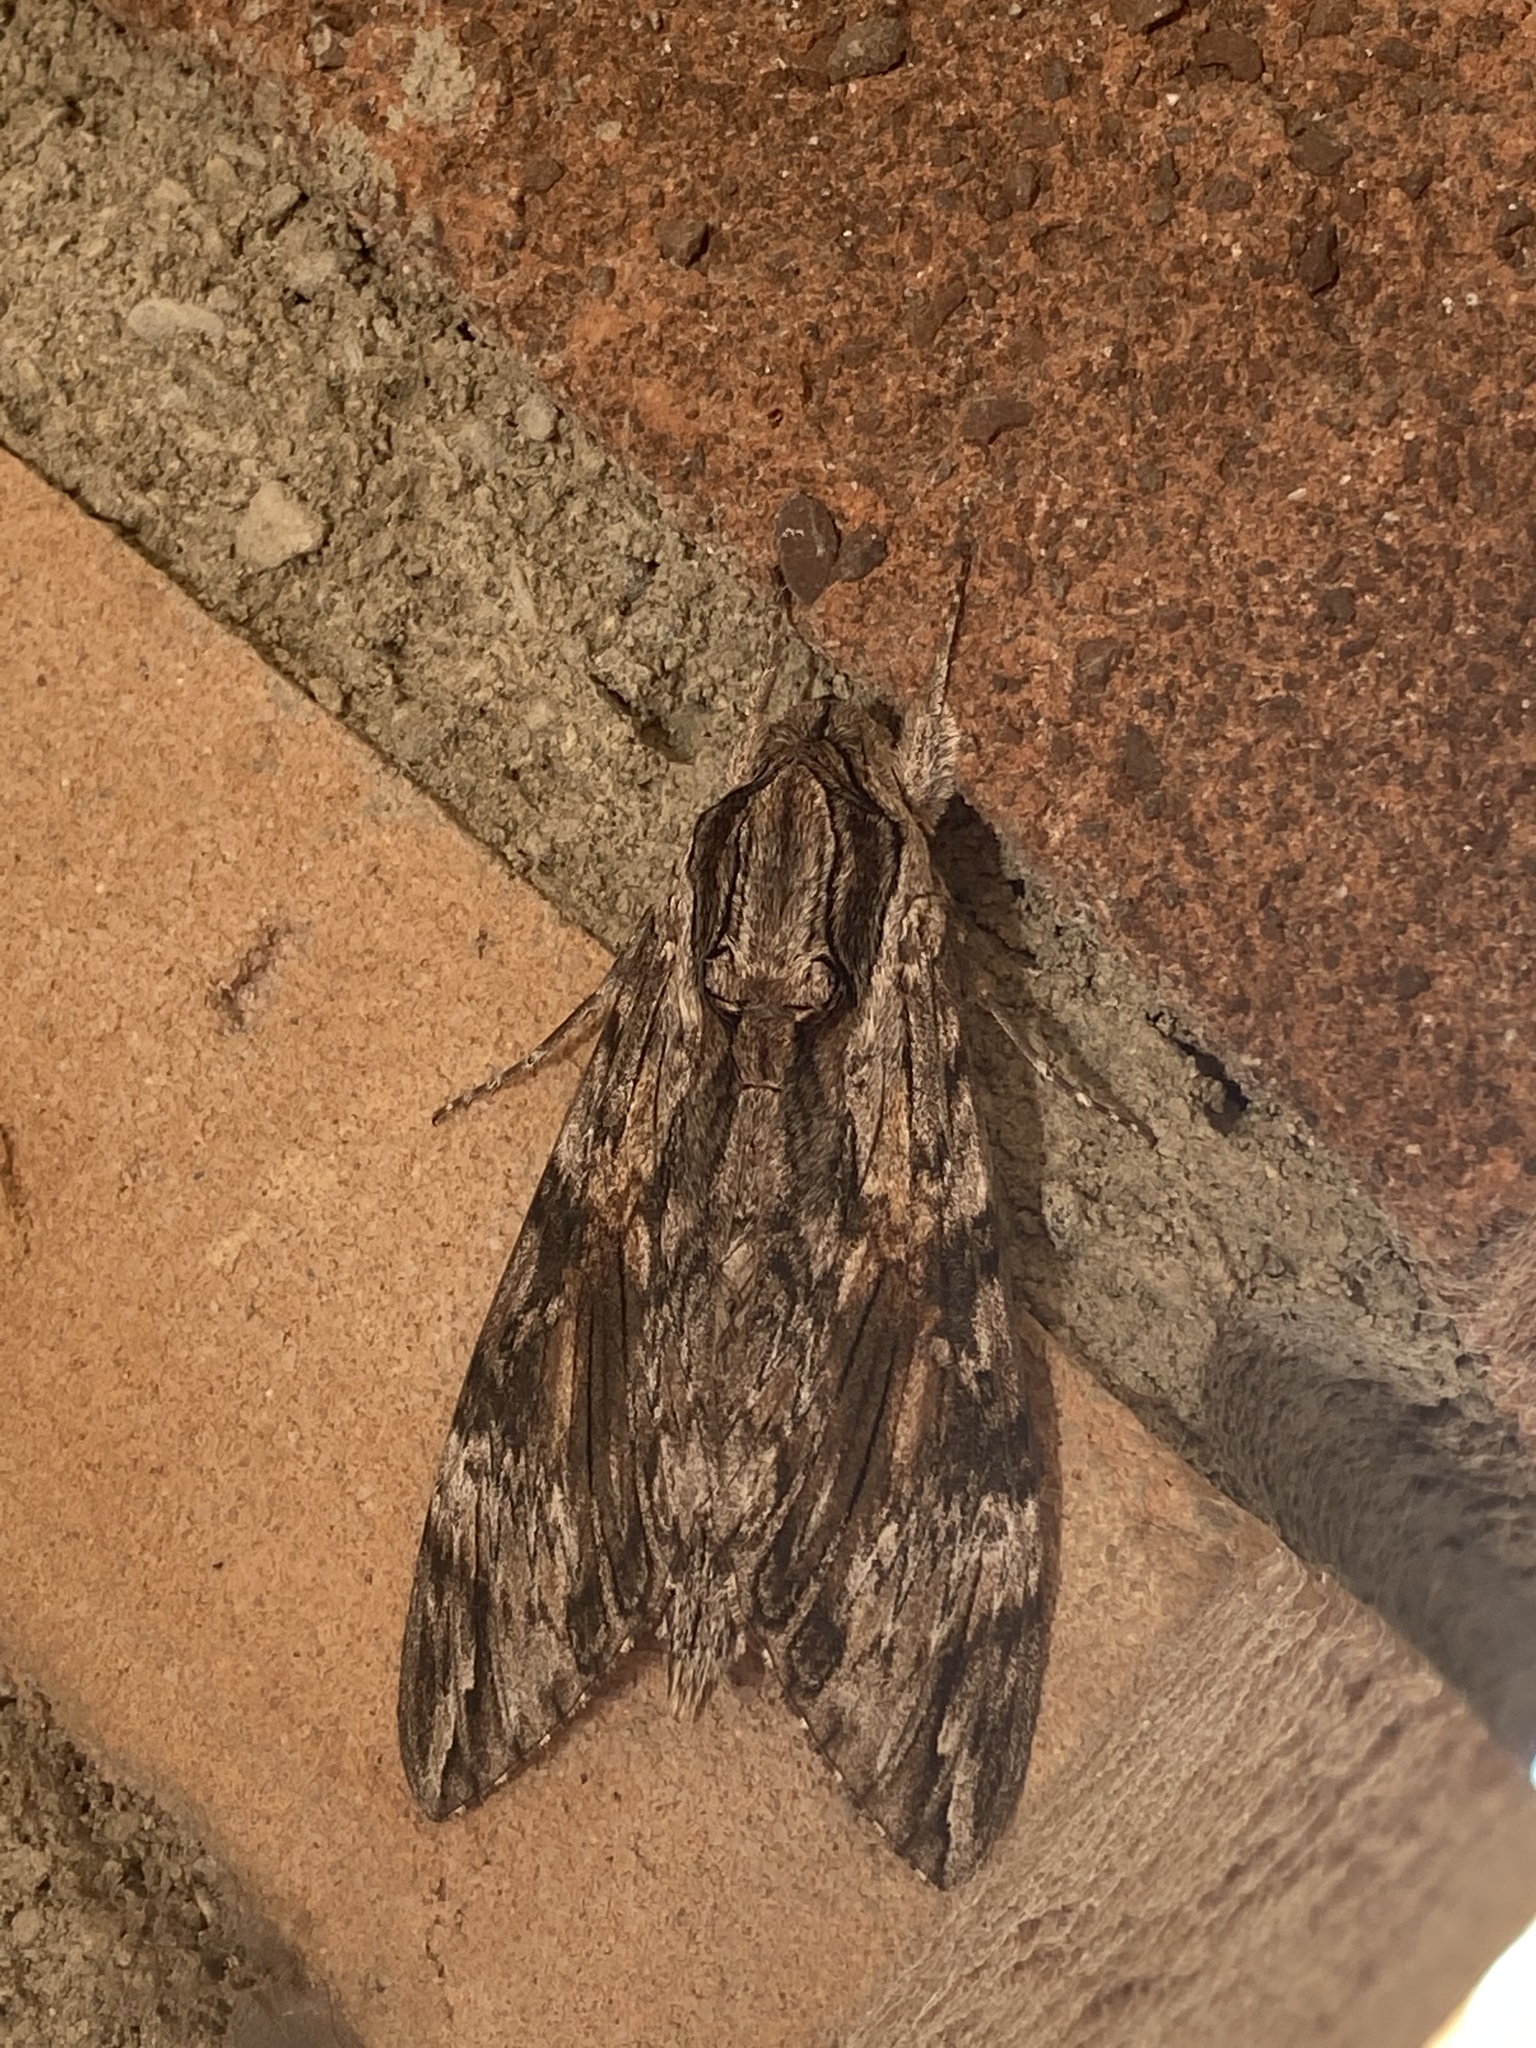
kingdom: Animalia
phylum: Arthropoda
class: Insecta
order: Lepidoptera
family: Sphingidae
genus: Agrius
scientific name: Agrius convolvuli
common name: Convolvulus hawkmoth
